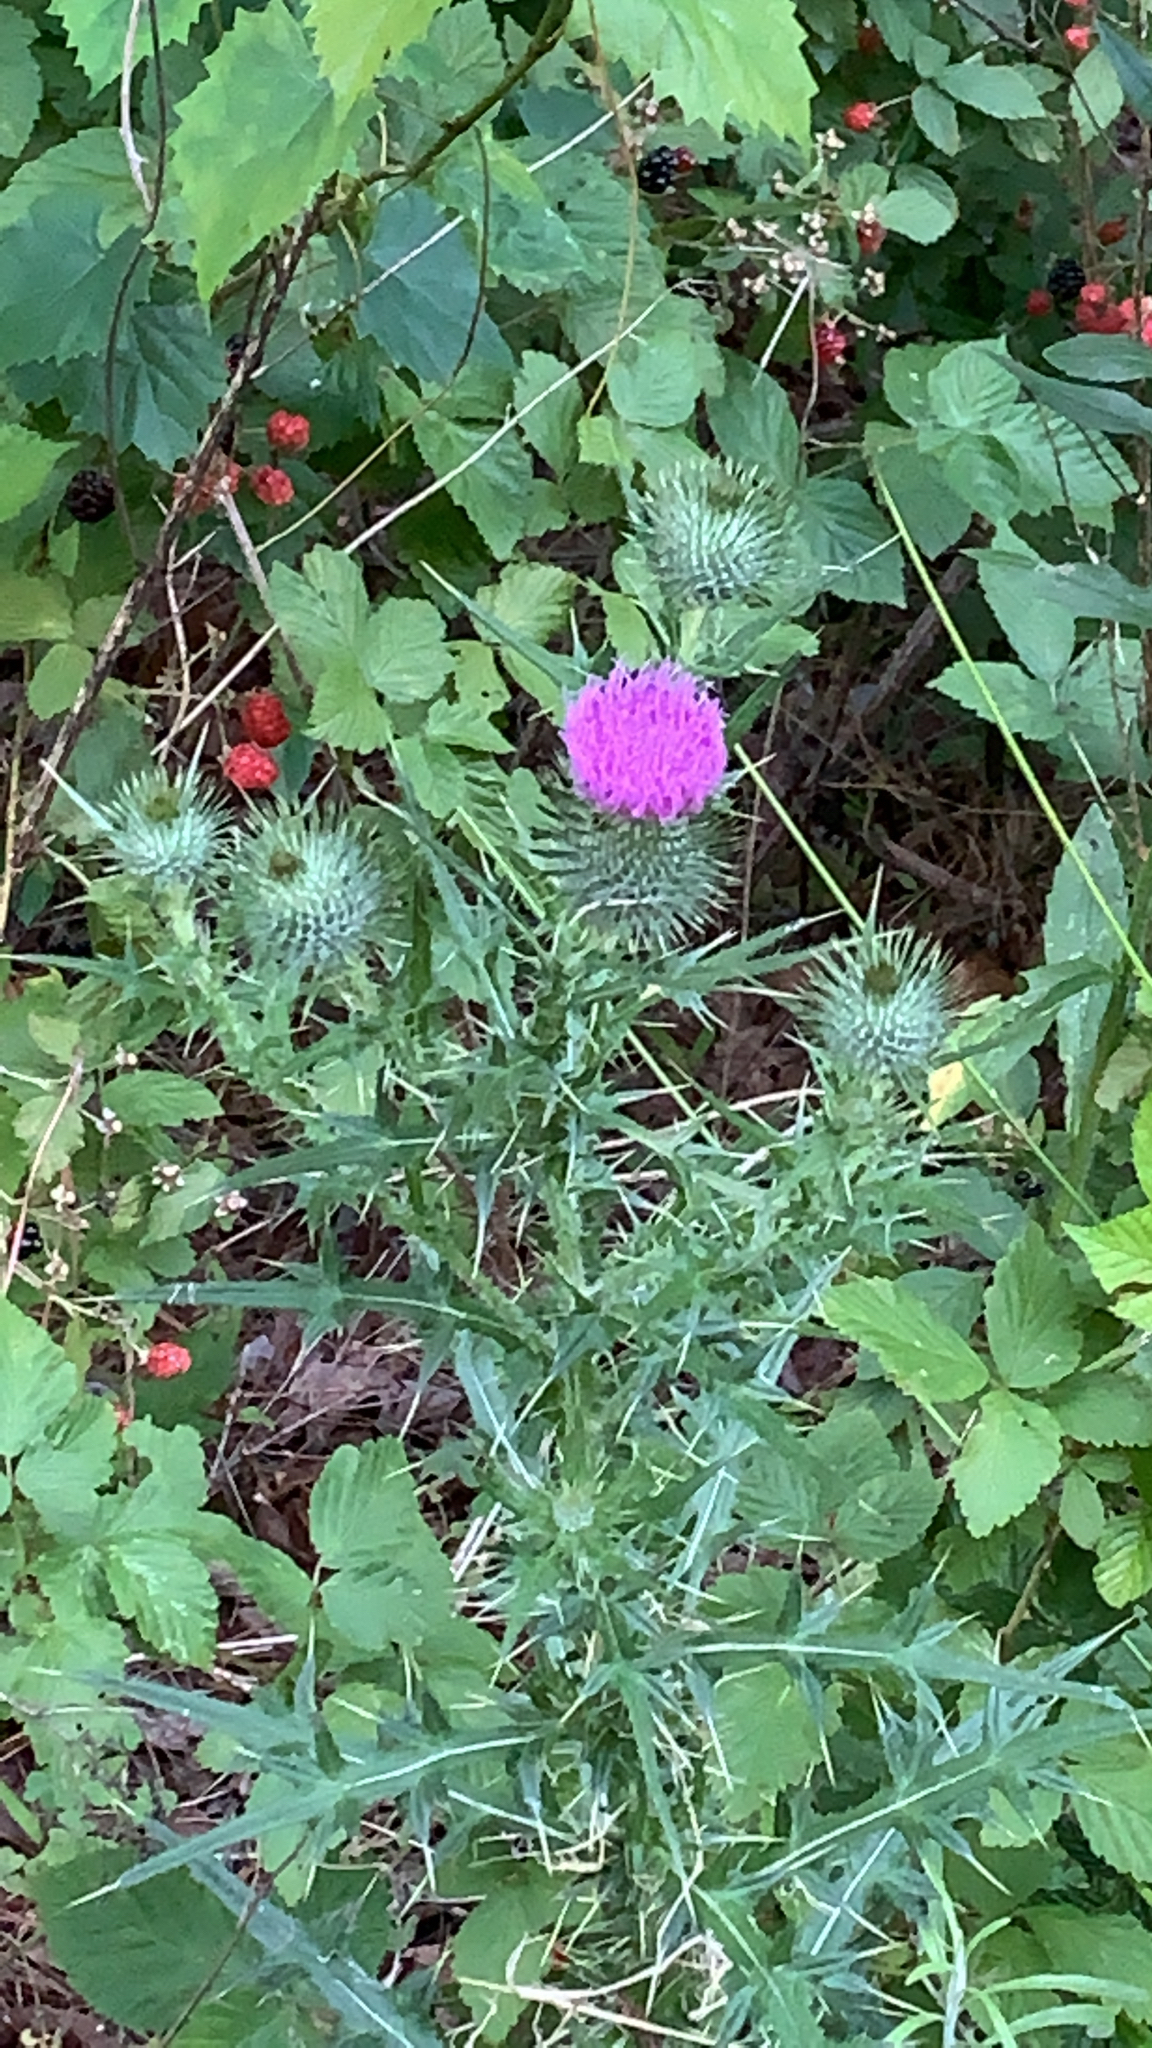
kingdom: Plantae
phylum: Tracheophyta
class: Magnoliopsida
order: Asterales
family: Asteraceae
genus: Cirsium
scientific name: Cirsium vulgare
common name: Bull thistle
